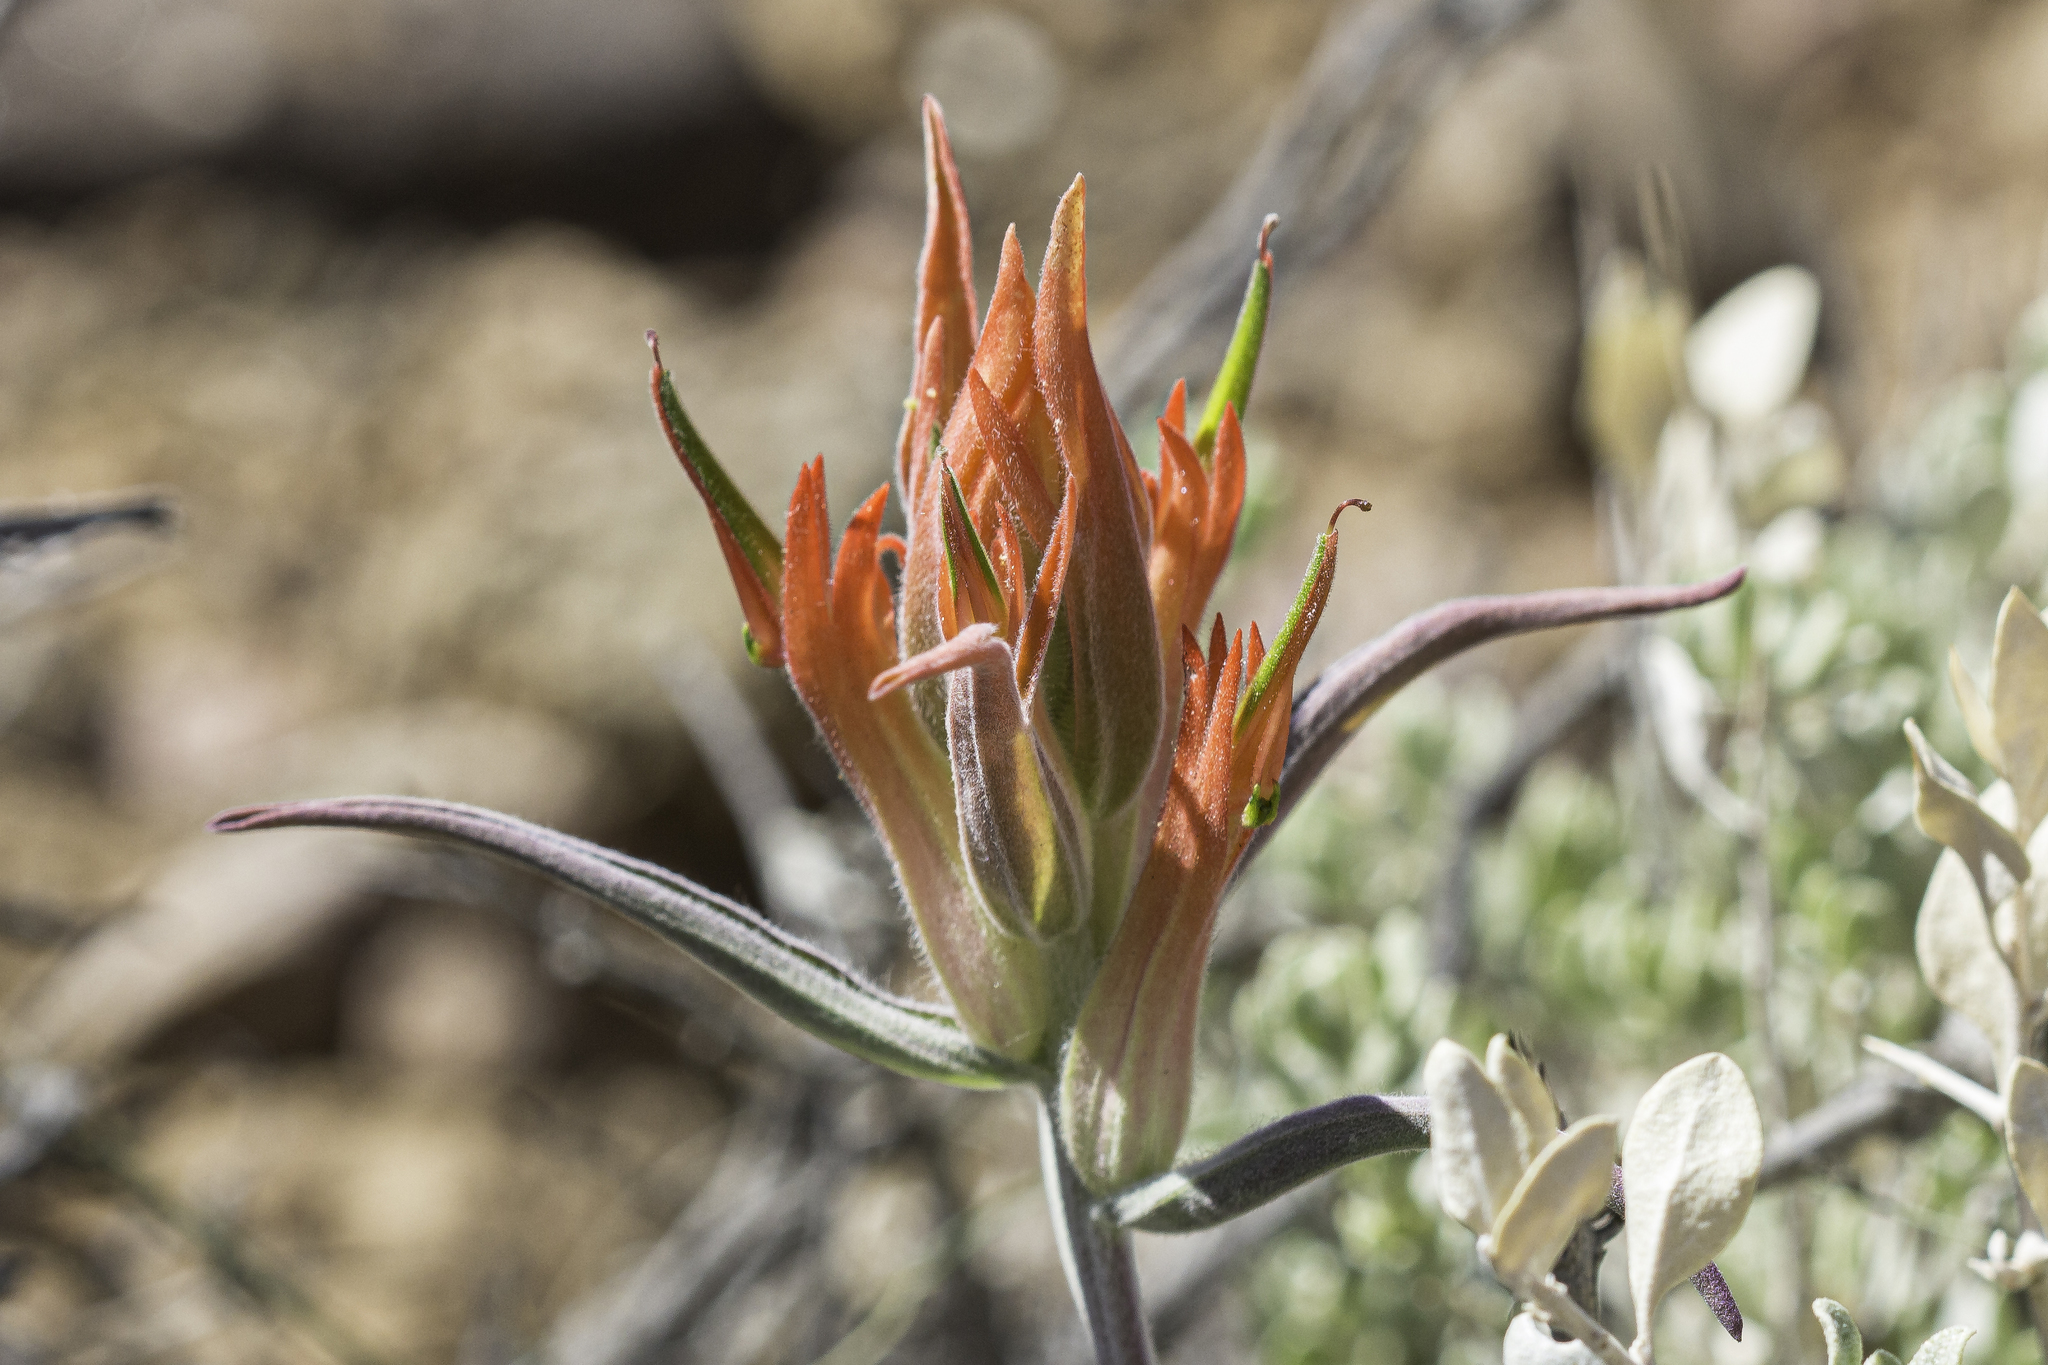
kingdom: Plantae
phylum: Tracheophyta
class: Magnoliopsida
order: Lamiales
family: Orobanchaceae
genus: Castilleja
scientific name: Castilleja integra
